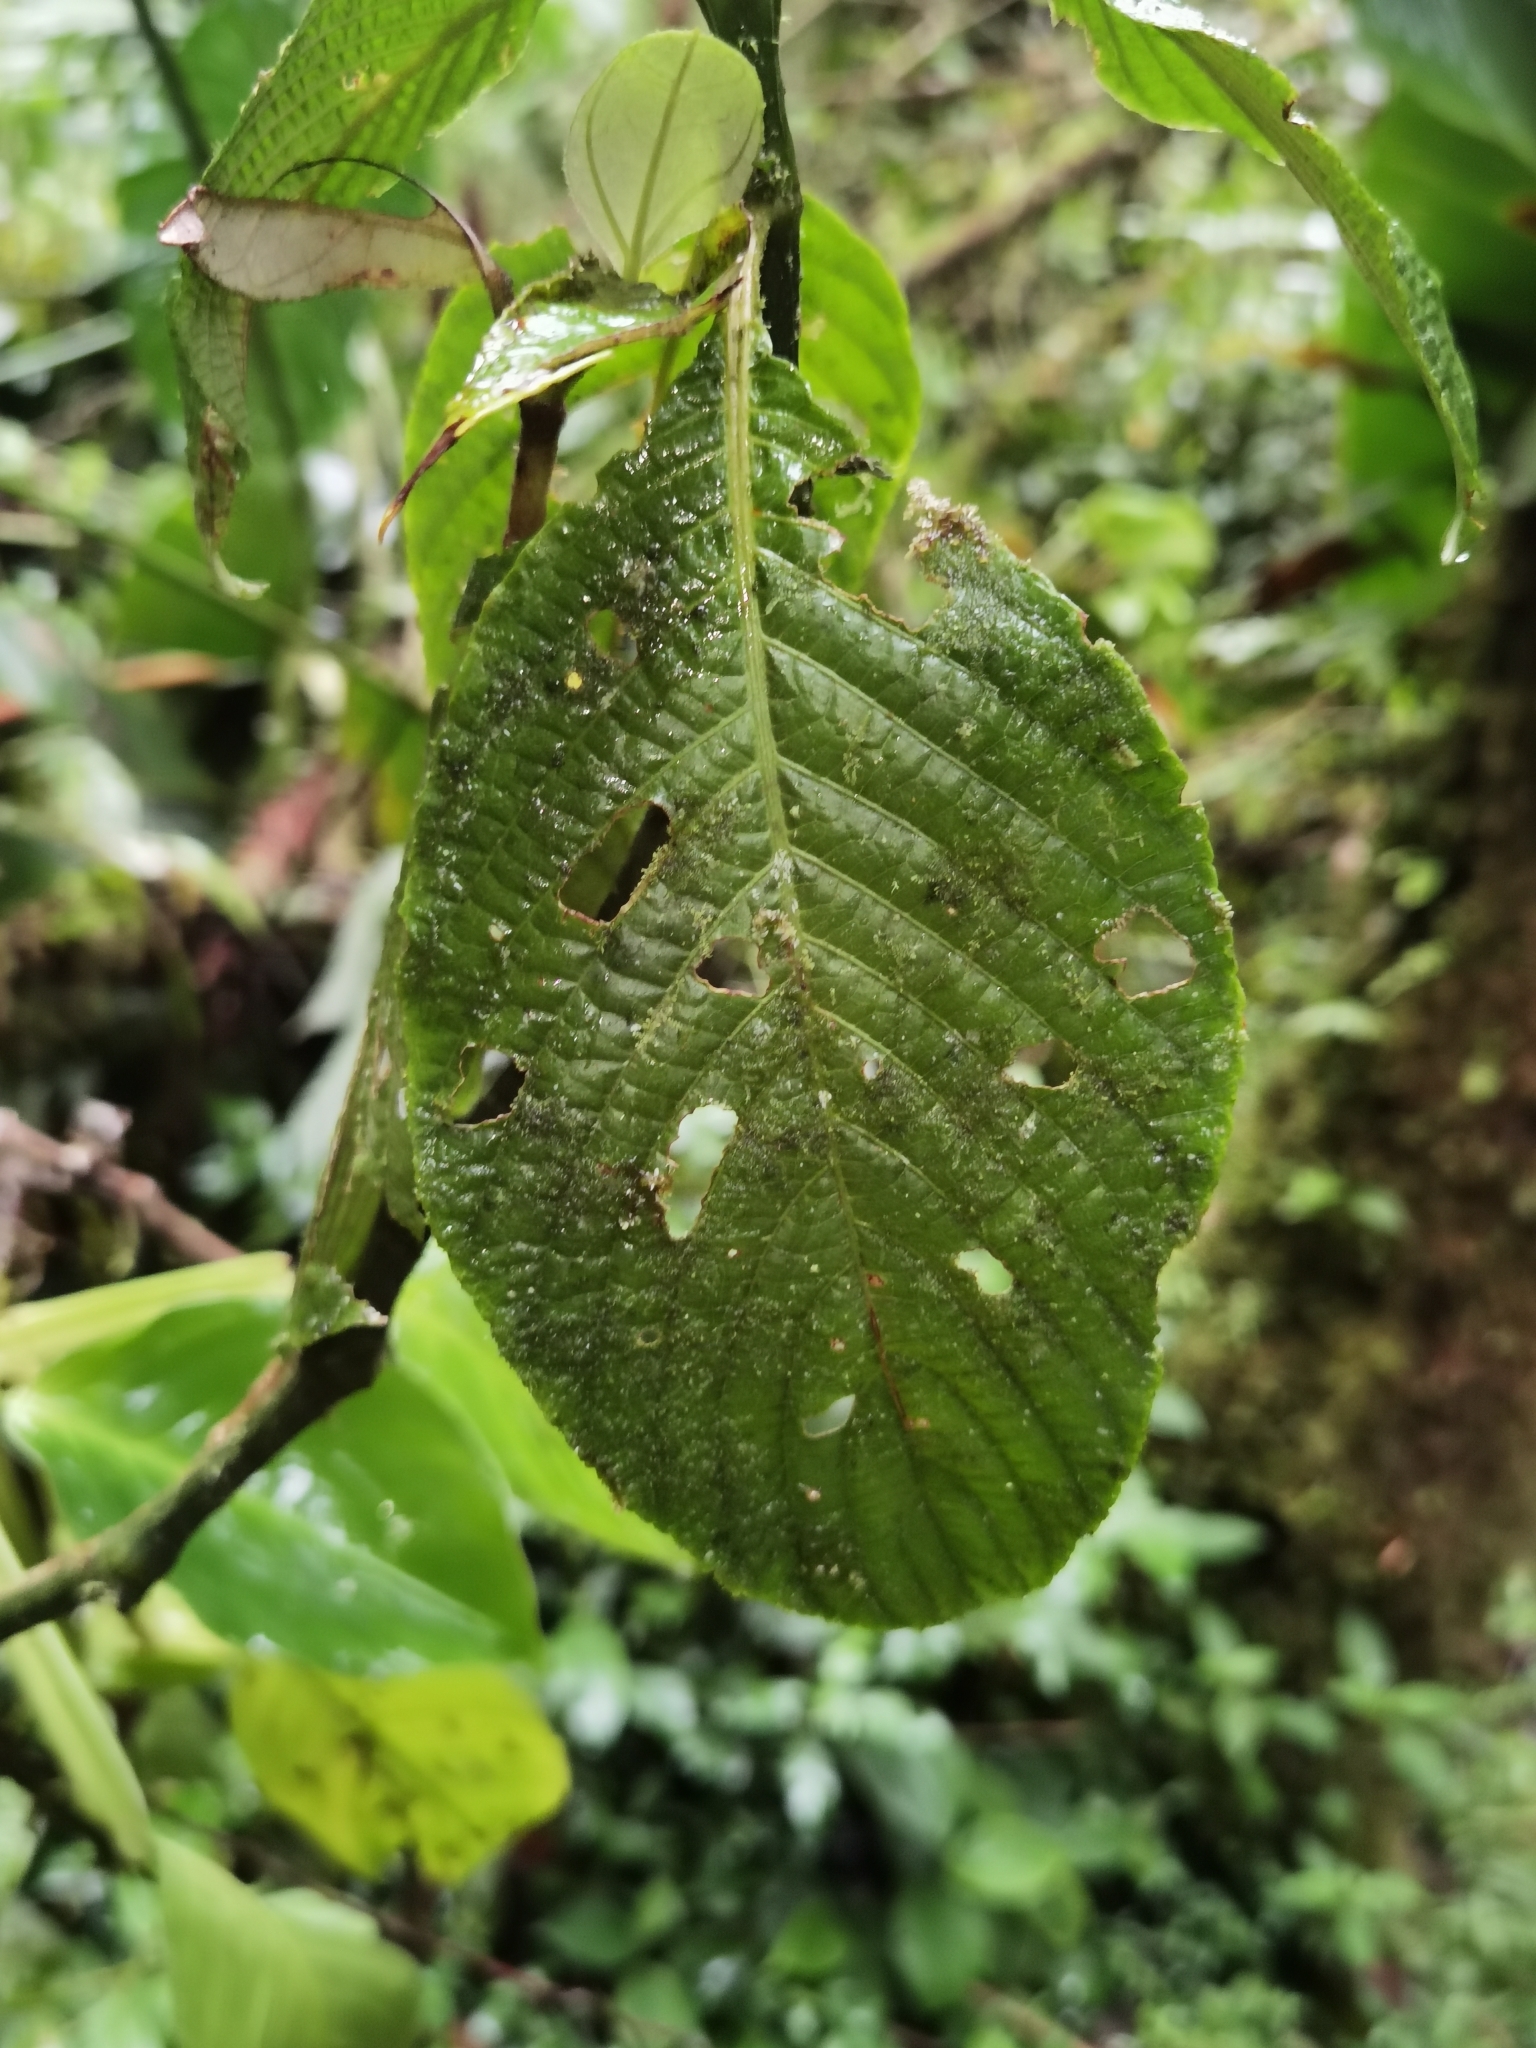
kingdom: Plantae
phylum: Tracheophyta
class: Magnoliopsida
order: Lamiales
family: Acanthaceae
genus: Stenostephanus
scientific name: Stenostephanus leiorhachis
